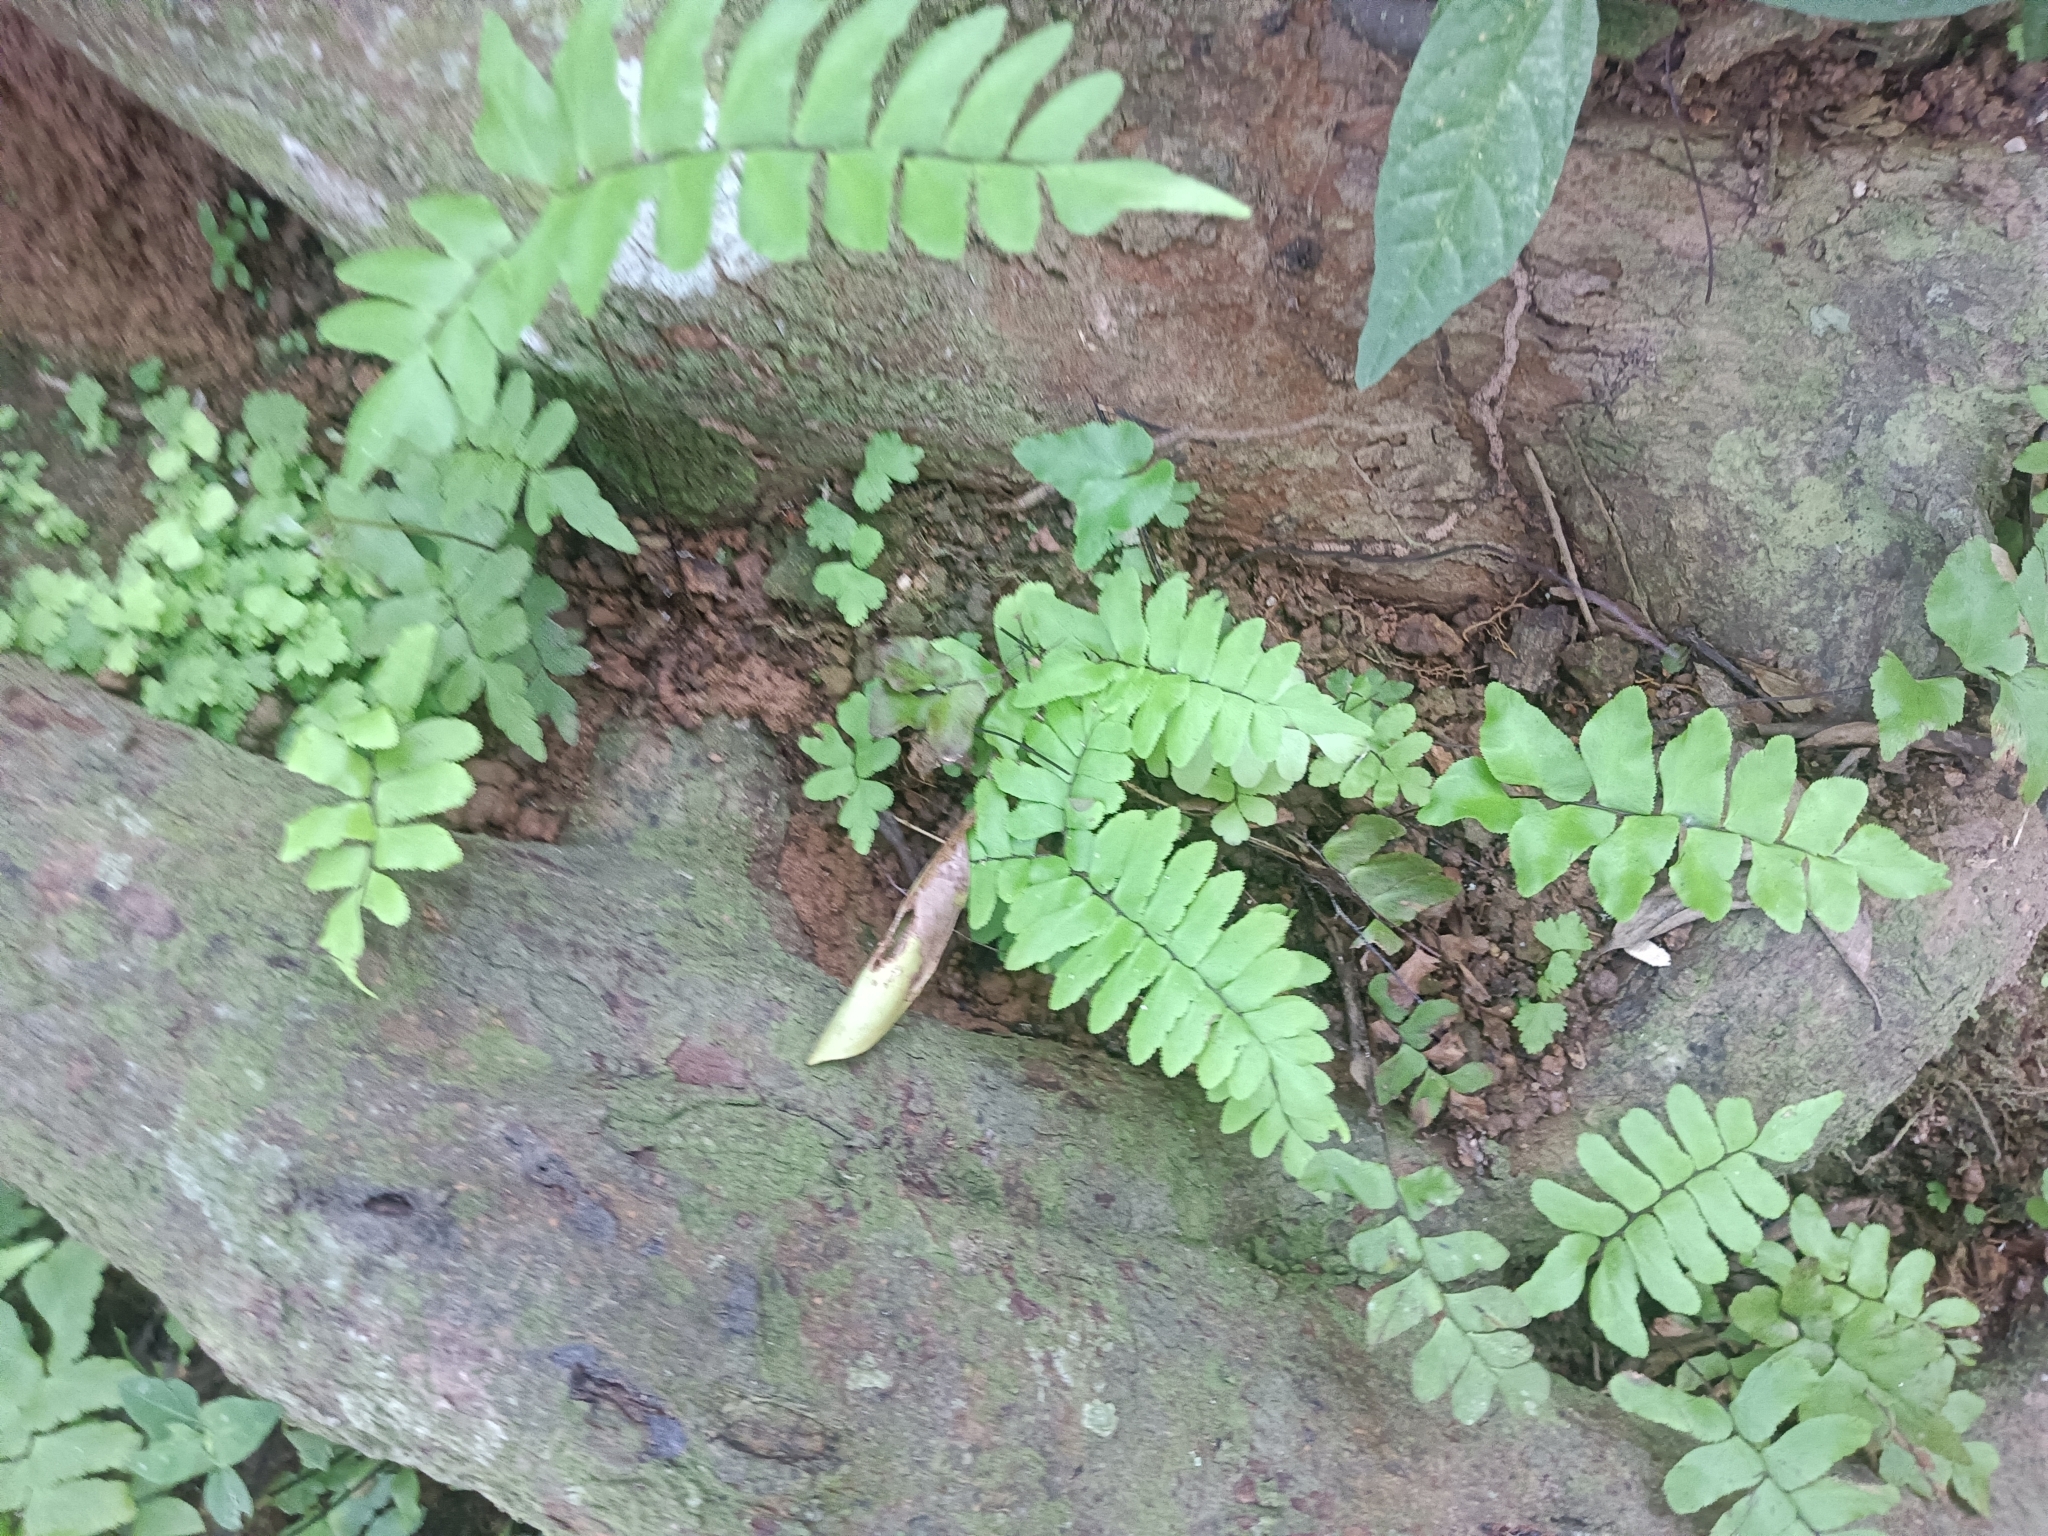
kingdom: Plantae
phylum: Tracheophyta
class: Polypodiopsida
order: Polypodiales
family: Pteridaceae
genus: Adiantum
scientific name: Adiantum latifolium
